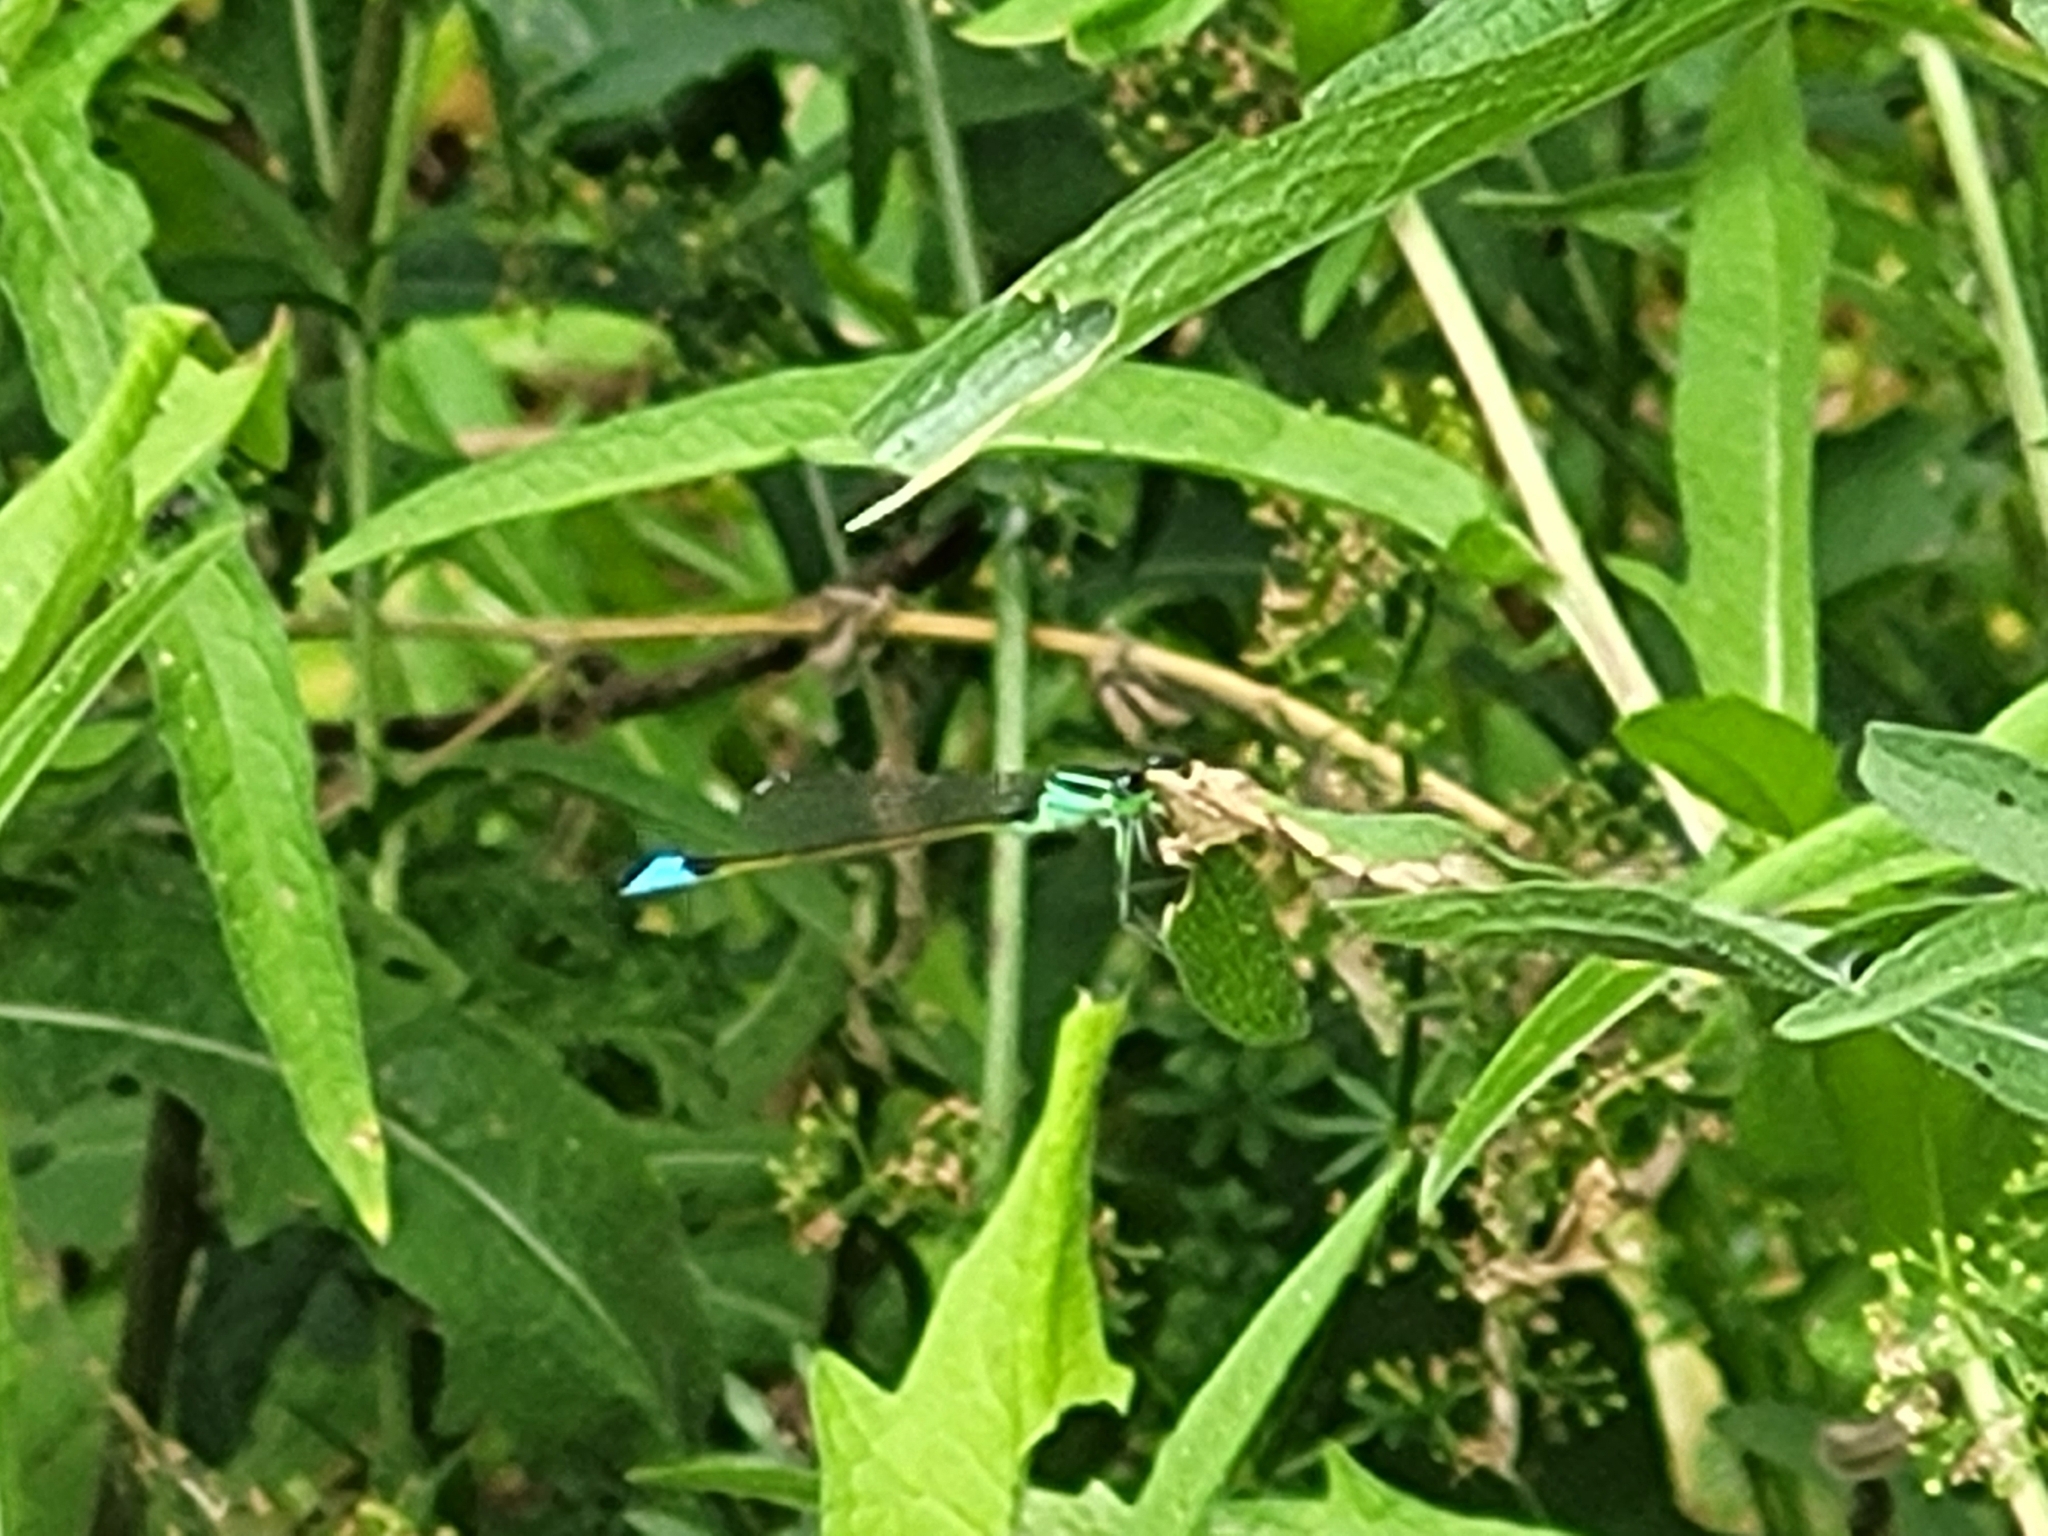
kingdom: Animalia
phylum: Arthropoda
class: Insecta
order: Odonata
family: Coenagrionidae
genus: Ischnura
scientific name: Ischnura elegans
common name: Blue-tailed damselfly
